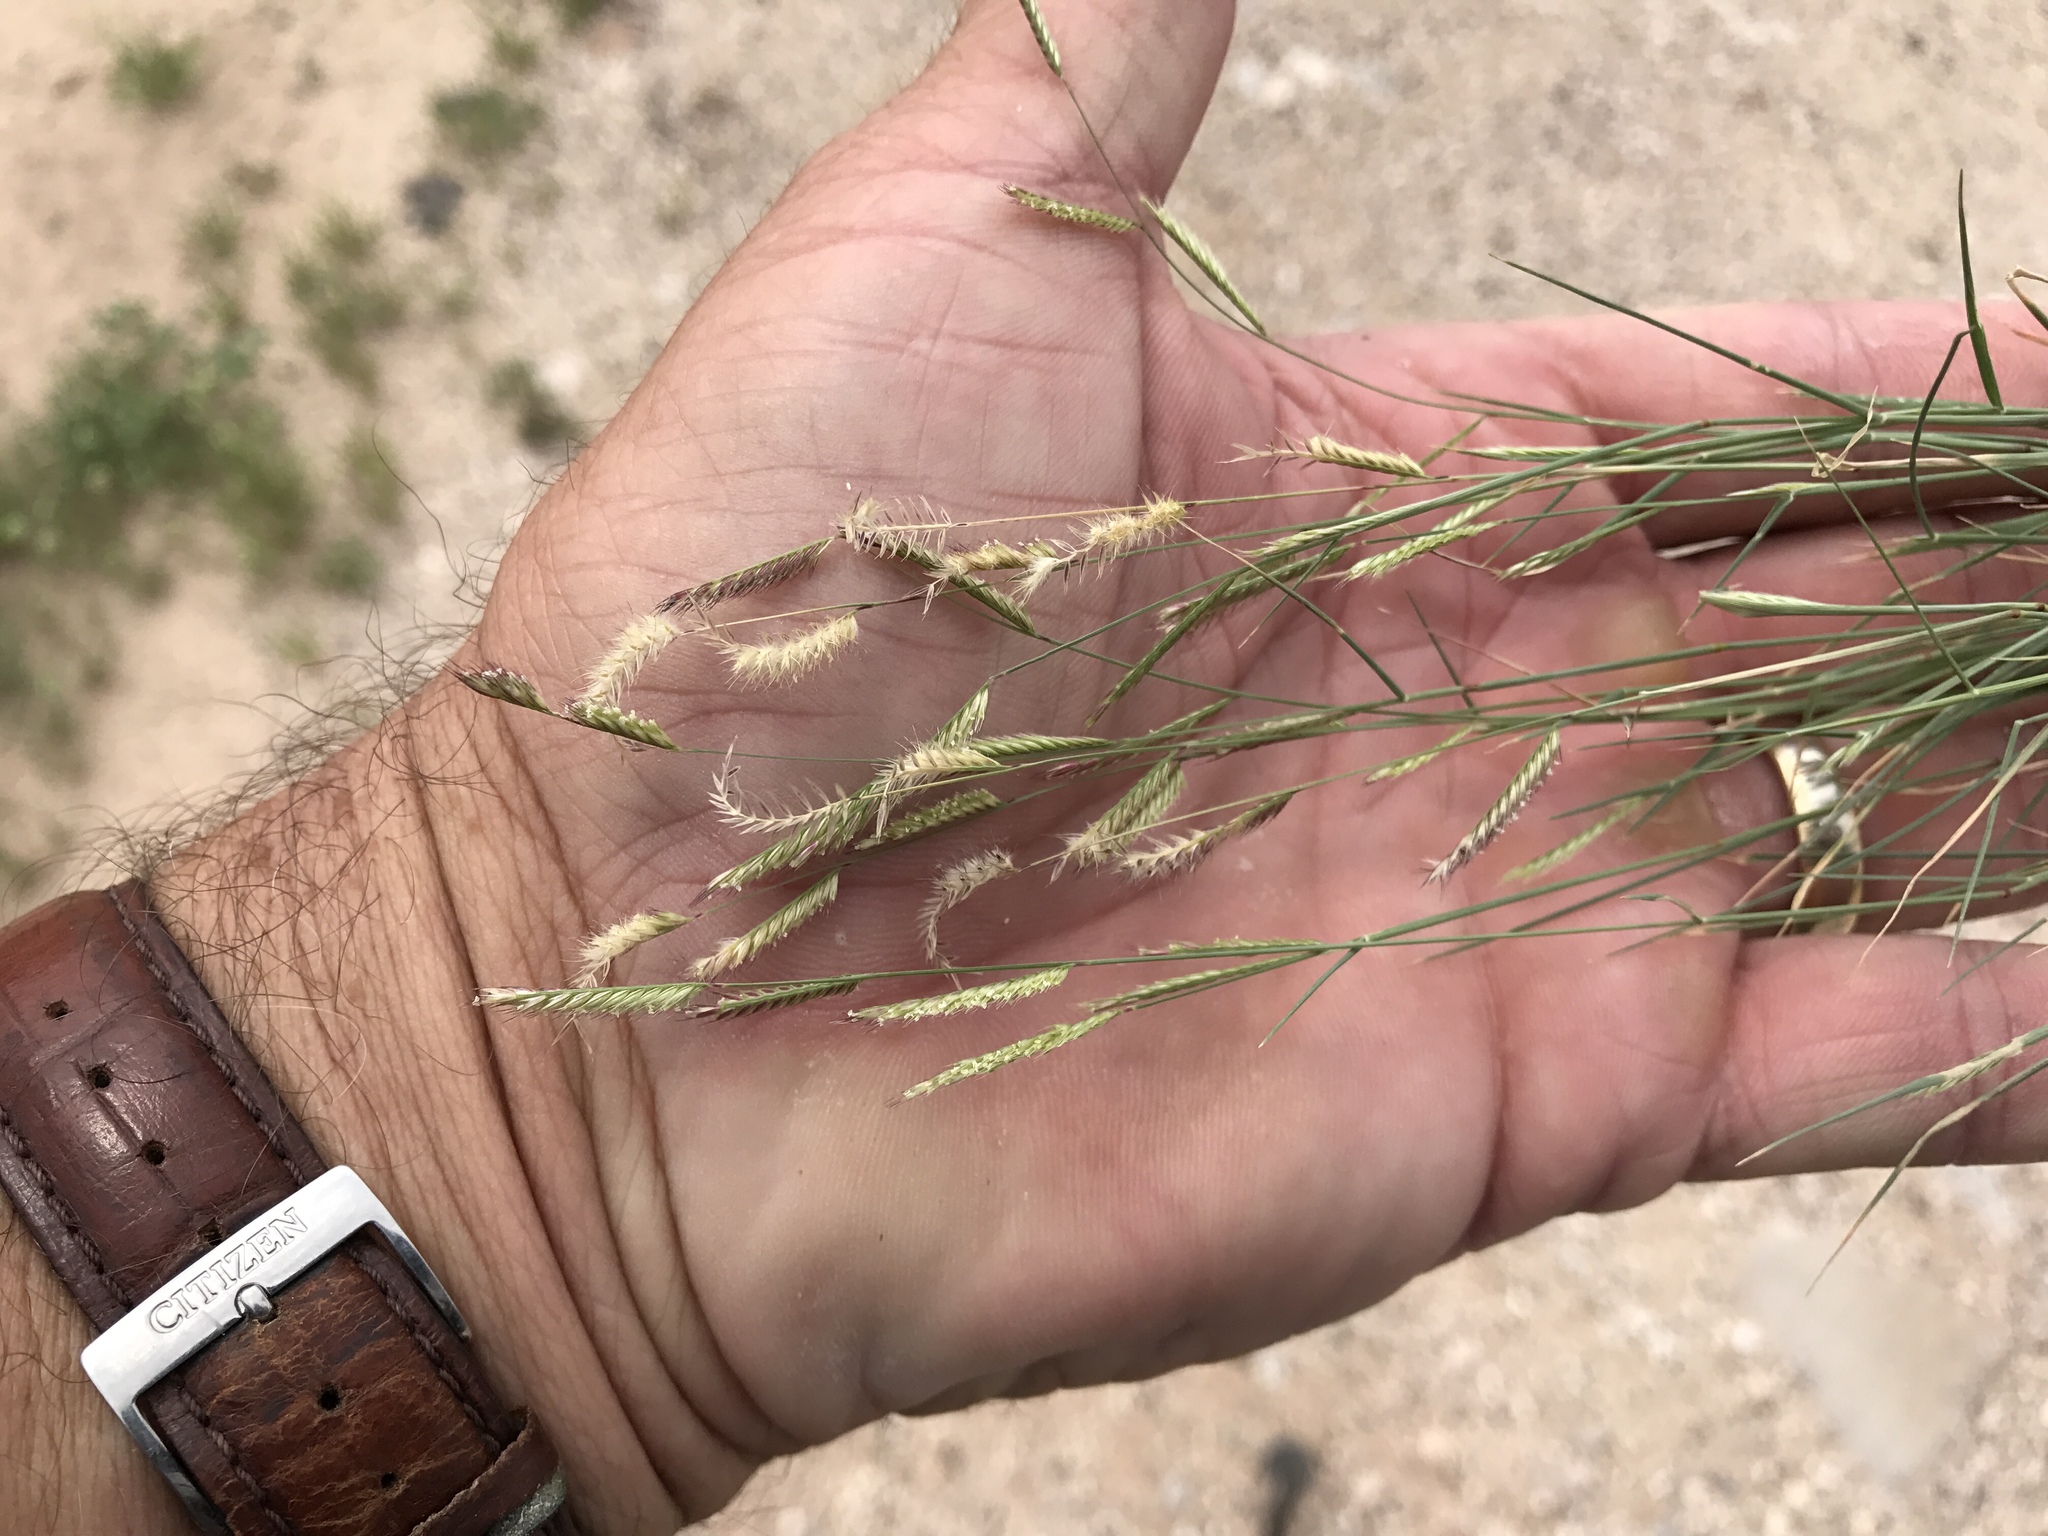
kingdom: Plantae
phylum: Tracheophyta
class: Liliopsida
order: Poales
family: Poaceae
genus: Bouteloua
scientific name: Bouteloua barbata
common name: Six-weeks grama
